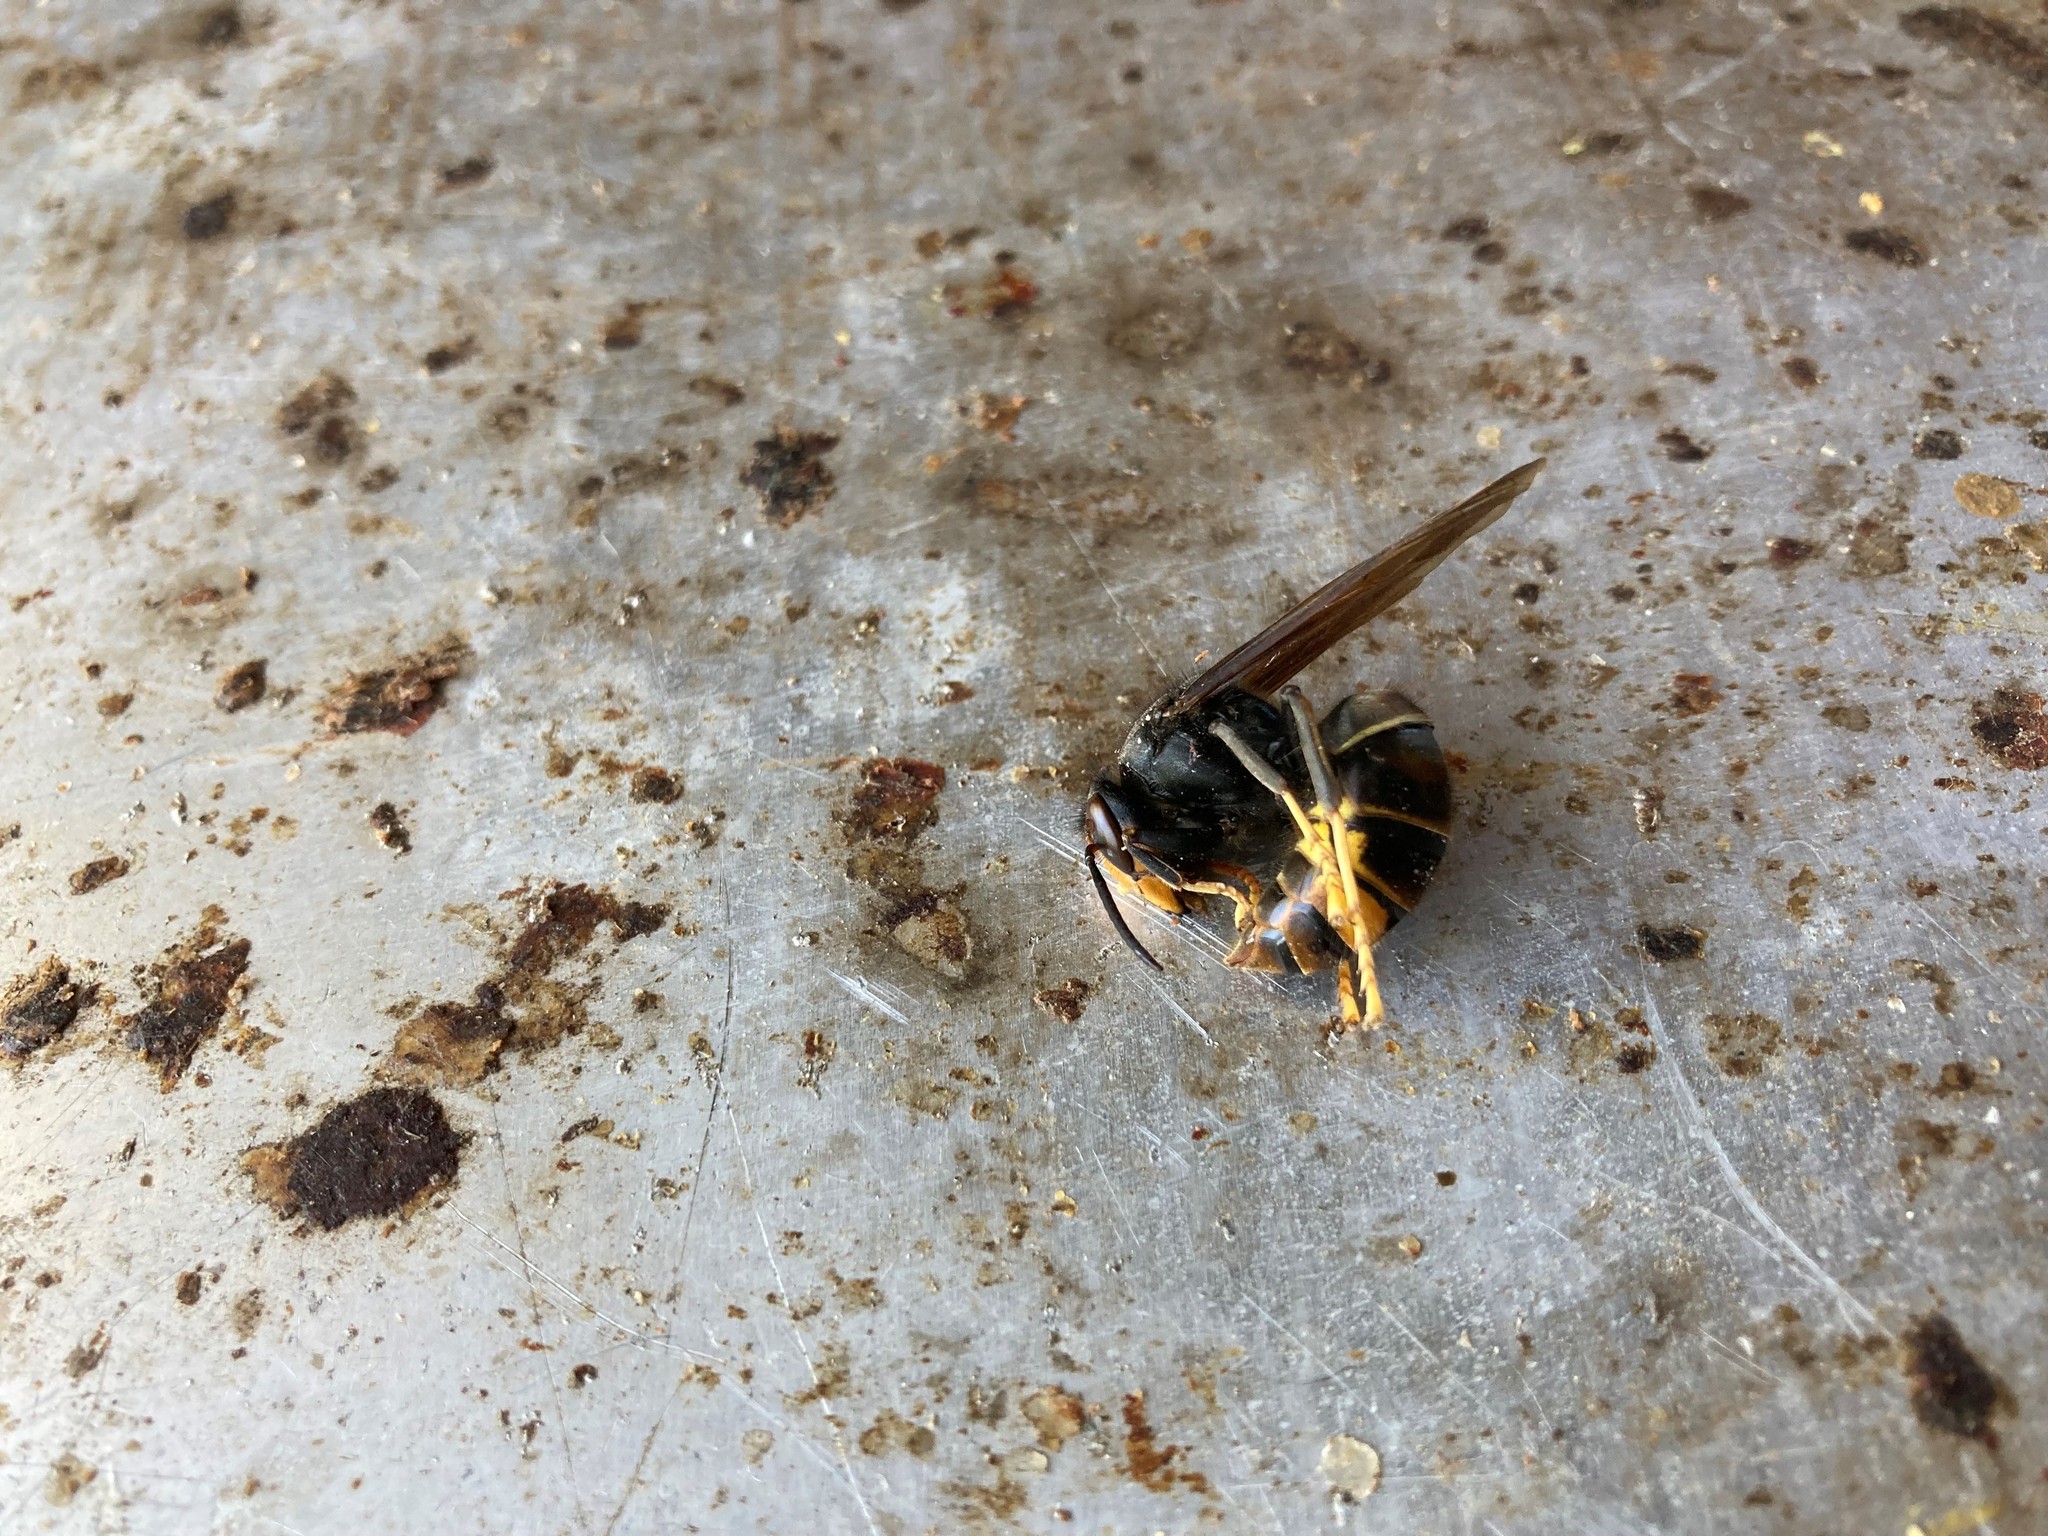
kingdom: Animalia
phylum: Arthropoda
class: Insecta
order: Hymenoptera
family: Vespidae
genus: Vespa
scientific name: Vespa velutina
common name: Asian hornet
